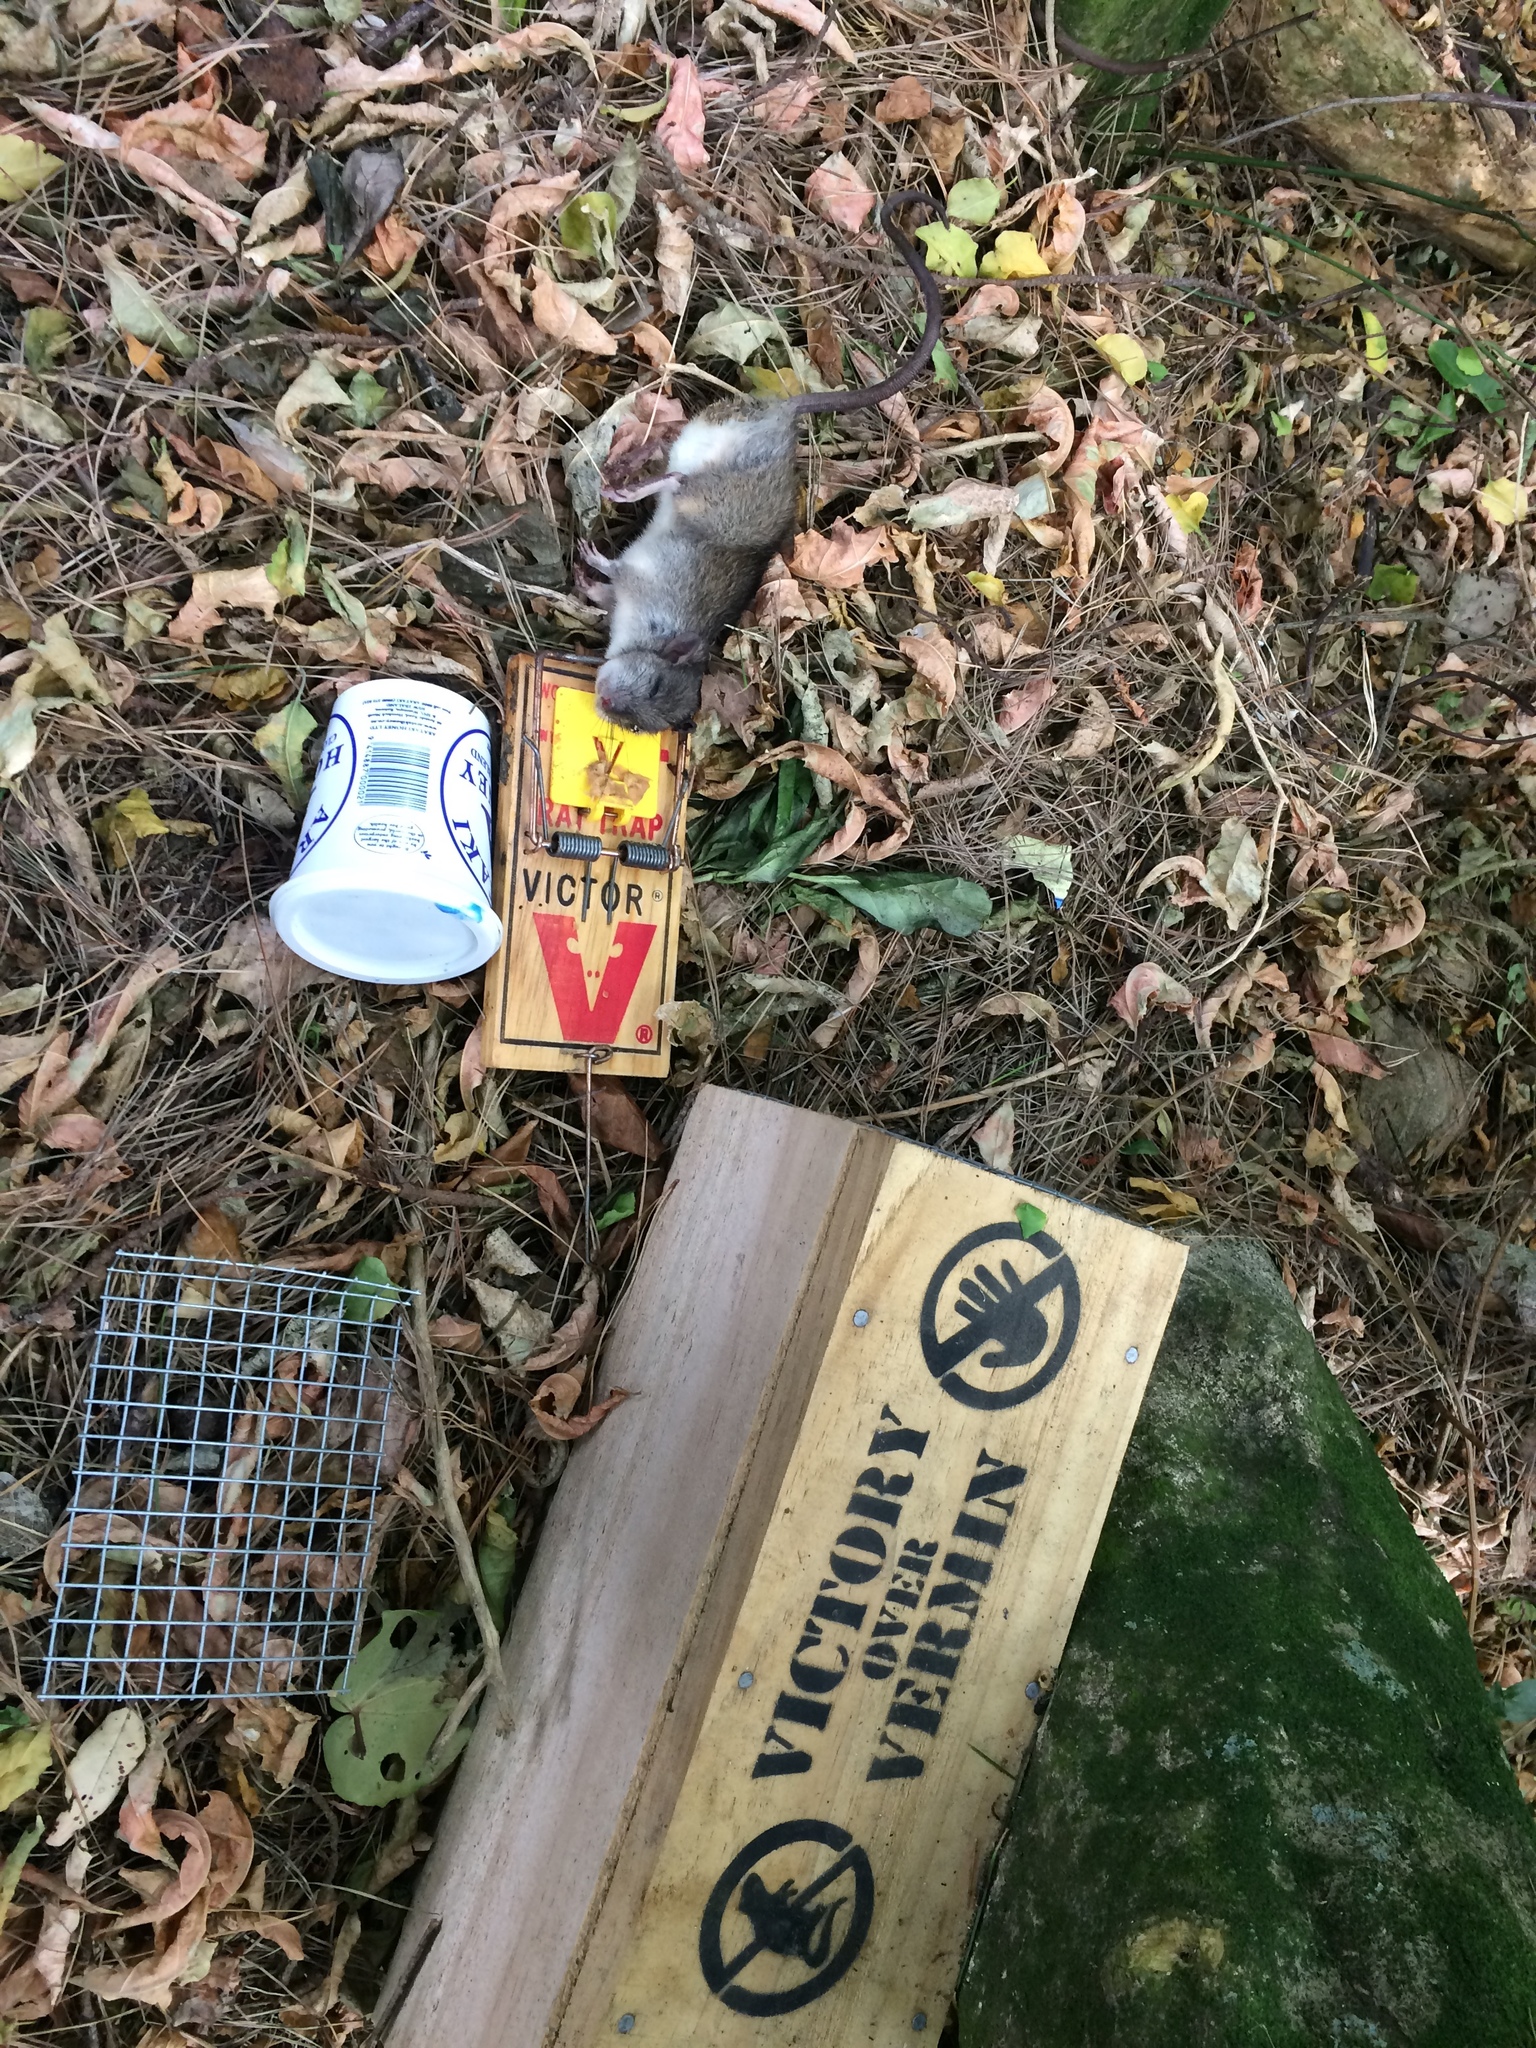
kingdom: Animalia
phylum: Chordata
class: Mammalia
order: Rodentia
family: Muridae
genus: Rattus
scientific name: Rattus rattus
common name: Black rat
